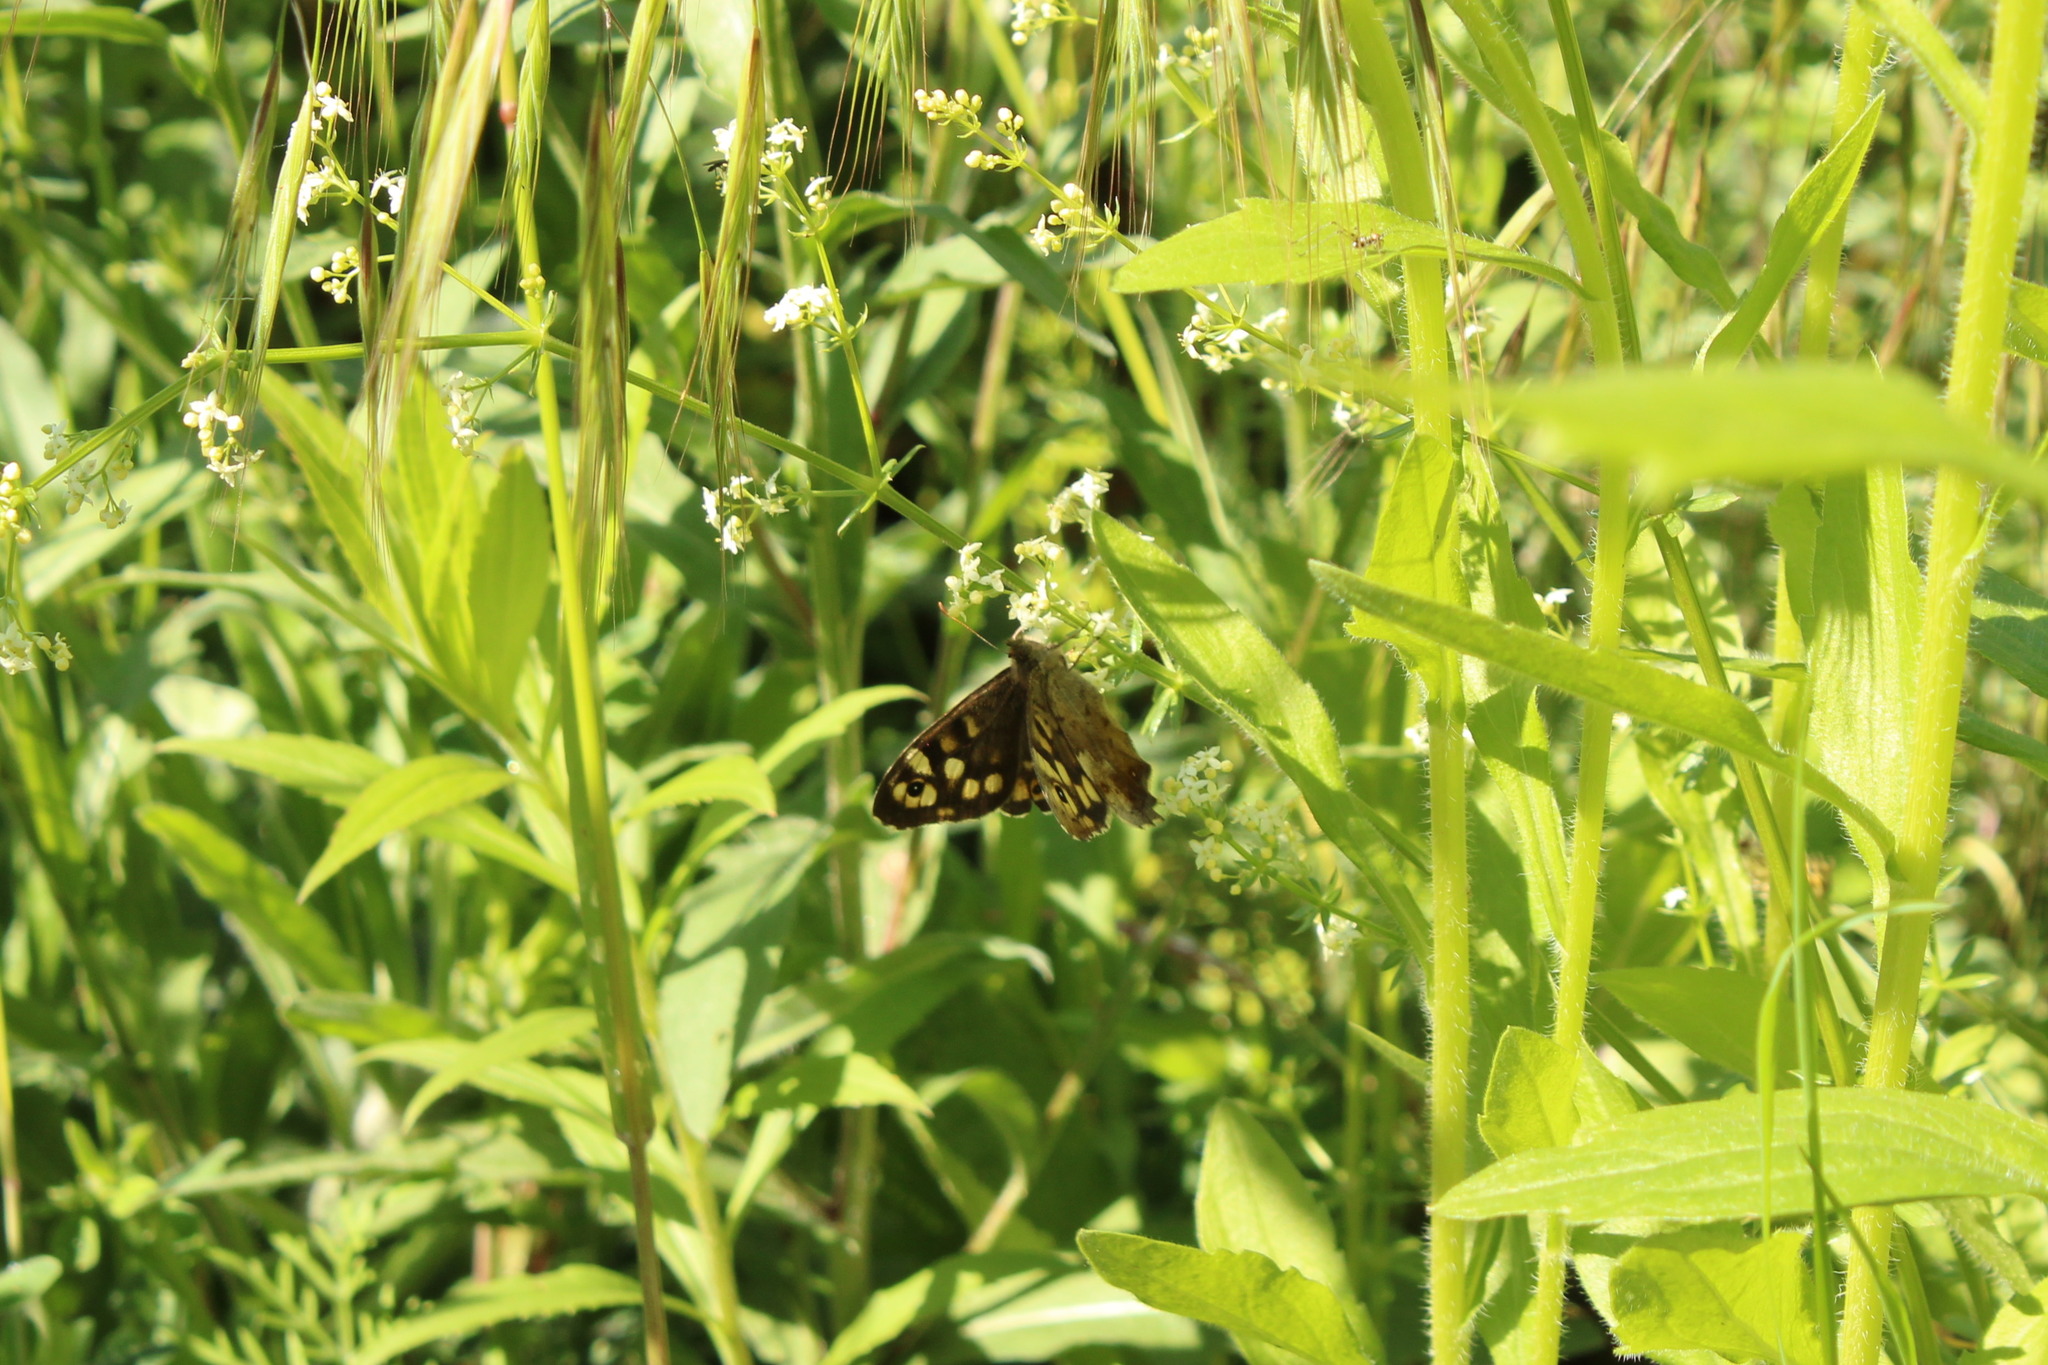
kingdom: Animalia
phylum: Arthropoda
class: Insecta
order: Lepidoptera
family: Nymphalidae
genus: Pararge
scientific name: Pararge aegeria
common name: Speckled wood
